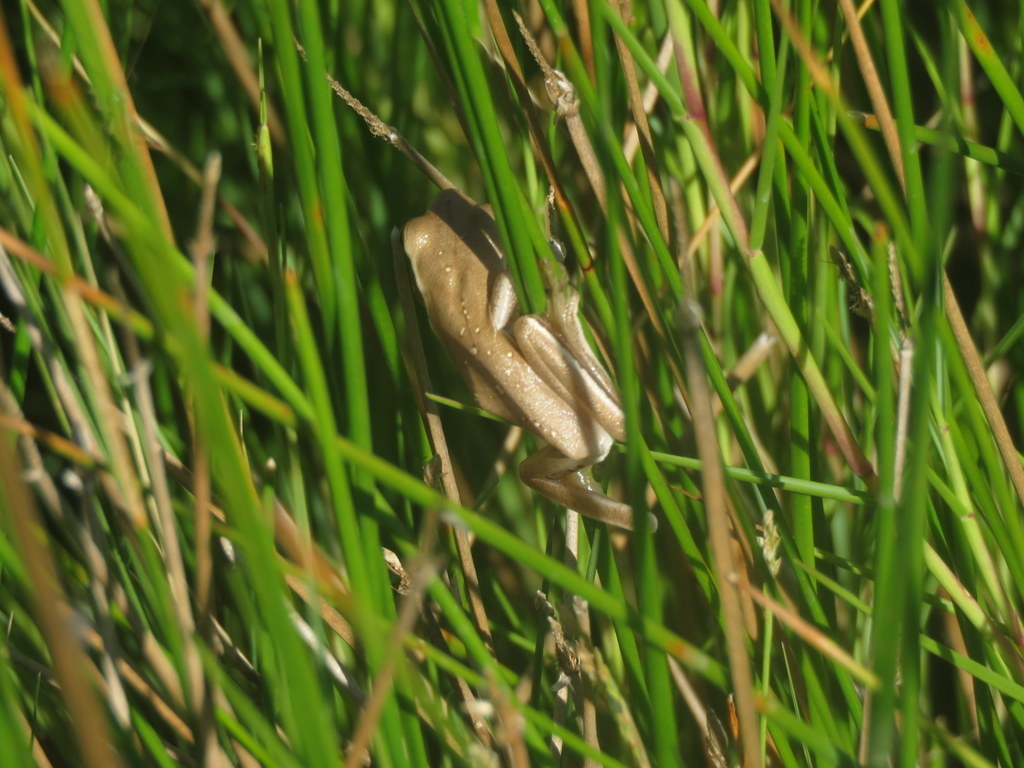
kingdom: Animalia
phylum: Chordata
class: Amphibia
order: Anura
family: Hylidae
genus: Boana
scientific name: Boana pulchella
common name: Montevideo treefrog
